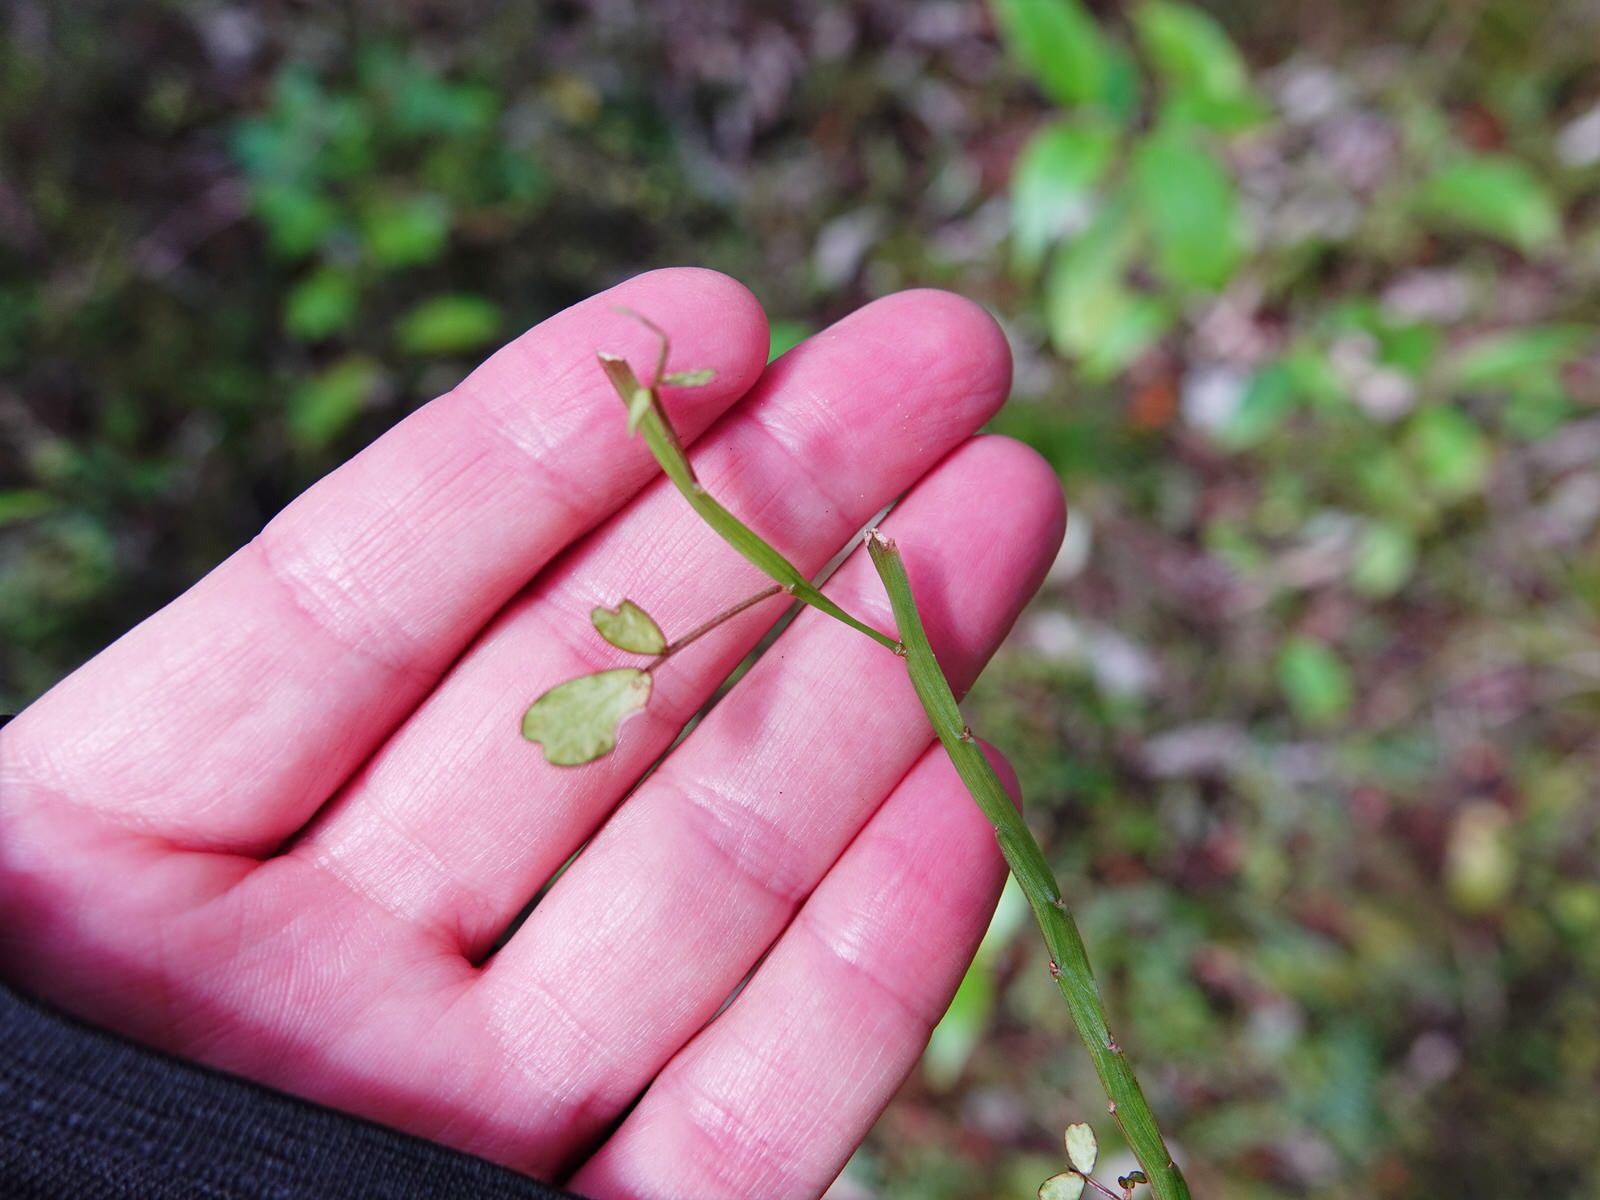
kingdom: Plantae
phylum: Tracheophyta
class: Magnoliopsida
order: Fabales
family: Fabaceae
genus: Carmichaelia
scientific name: Carmichaelia australis
